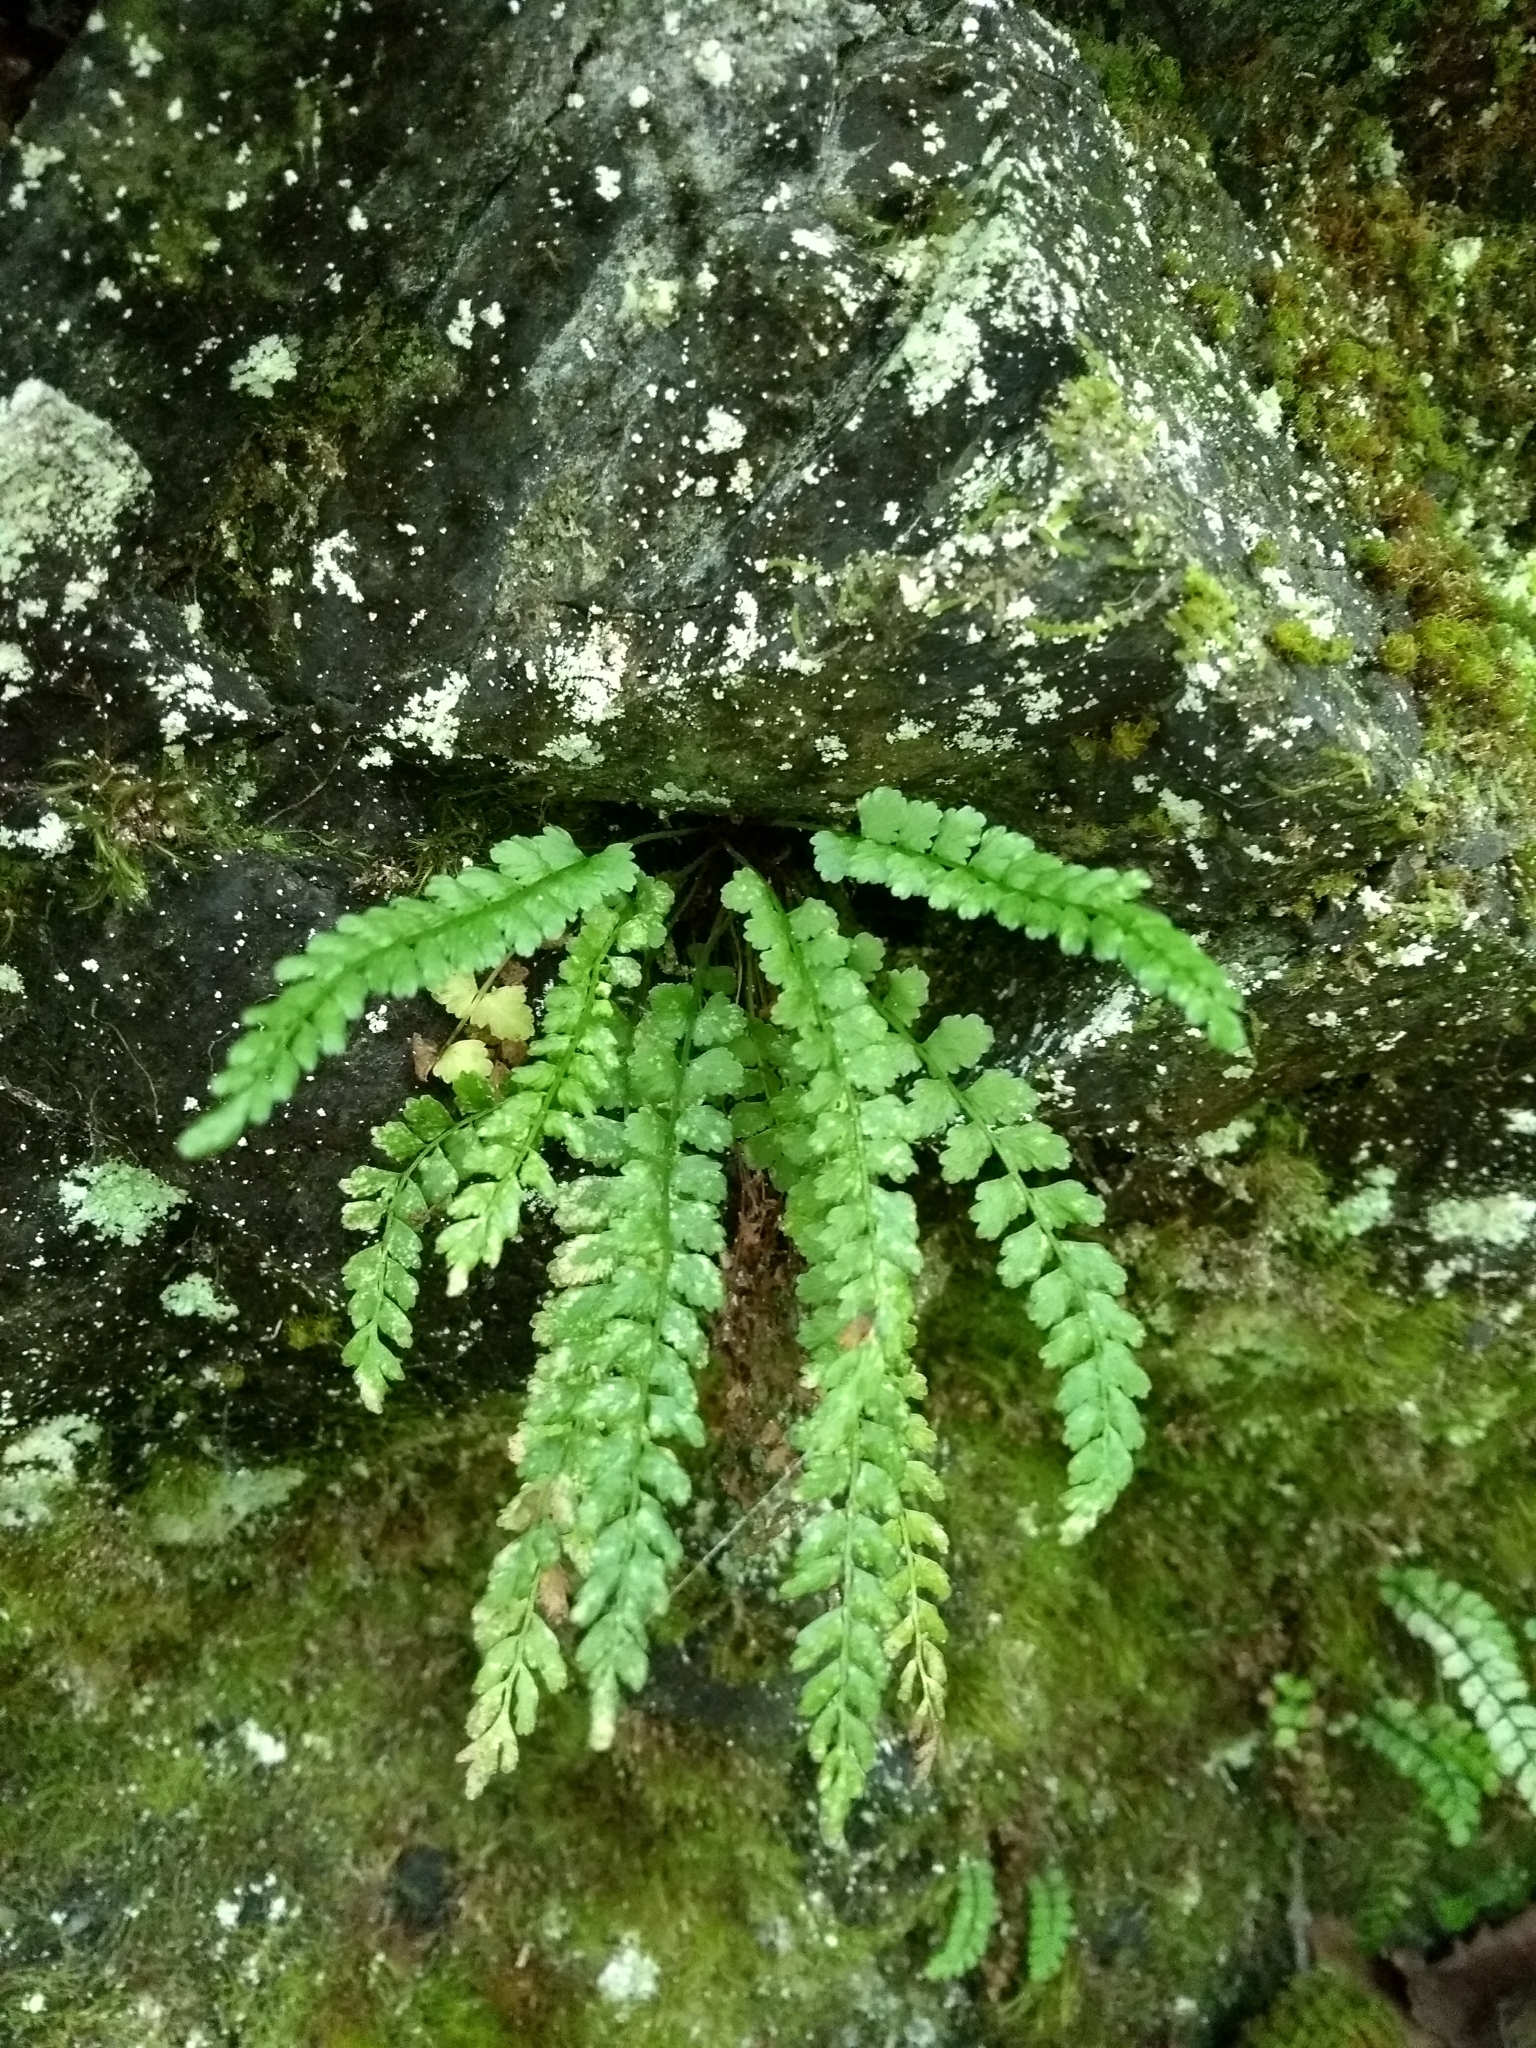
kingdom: Plantae
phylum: Tracheophyta
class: Polypodiopsida
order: Polypodiales
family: Aspleniaceae
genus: Asplenium
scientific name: Asplenium viride
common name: Green spleenwort
